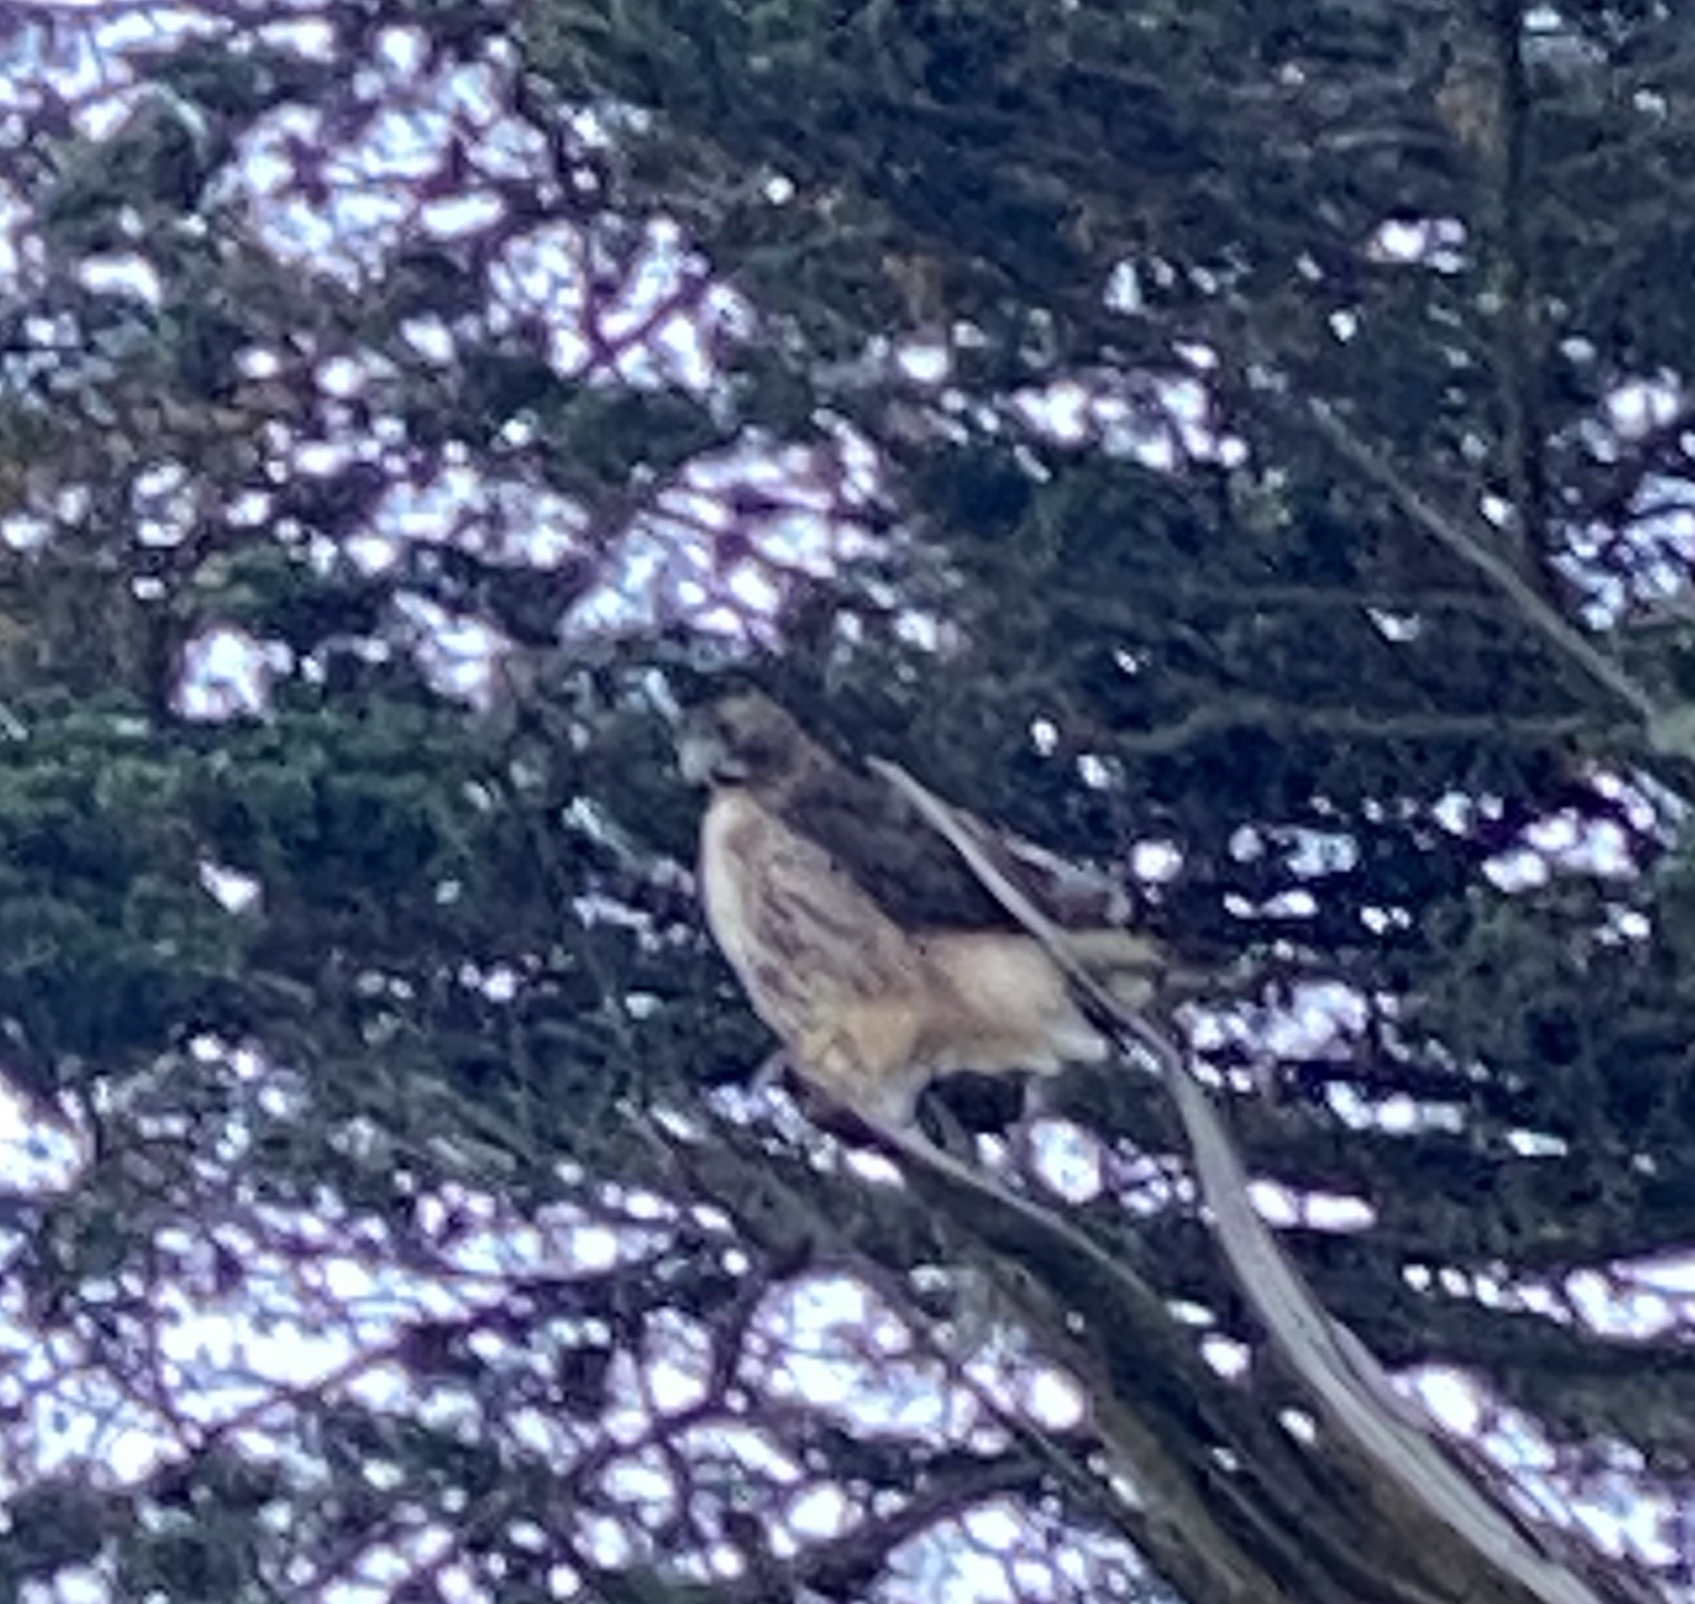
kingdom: Animalia
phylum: Chordata
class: Aves
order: Accipitriformes
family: Accipitridae
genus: Buteo
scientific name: Buteo jamaicensis
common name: Red-tailed hawk
